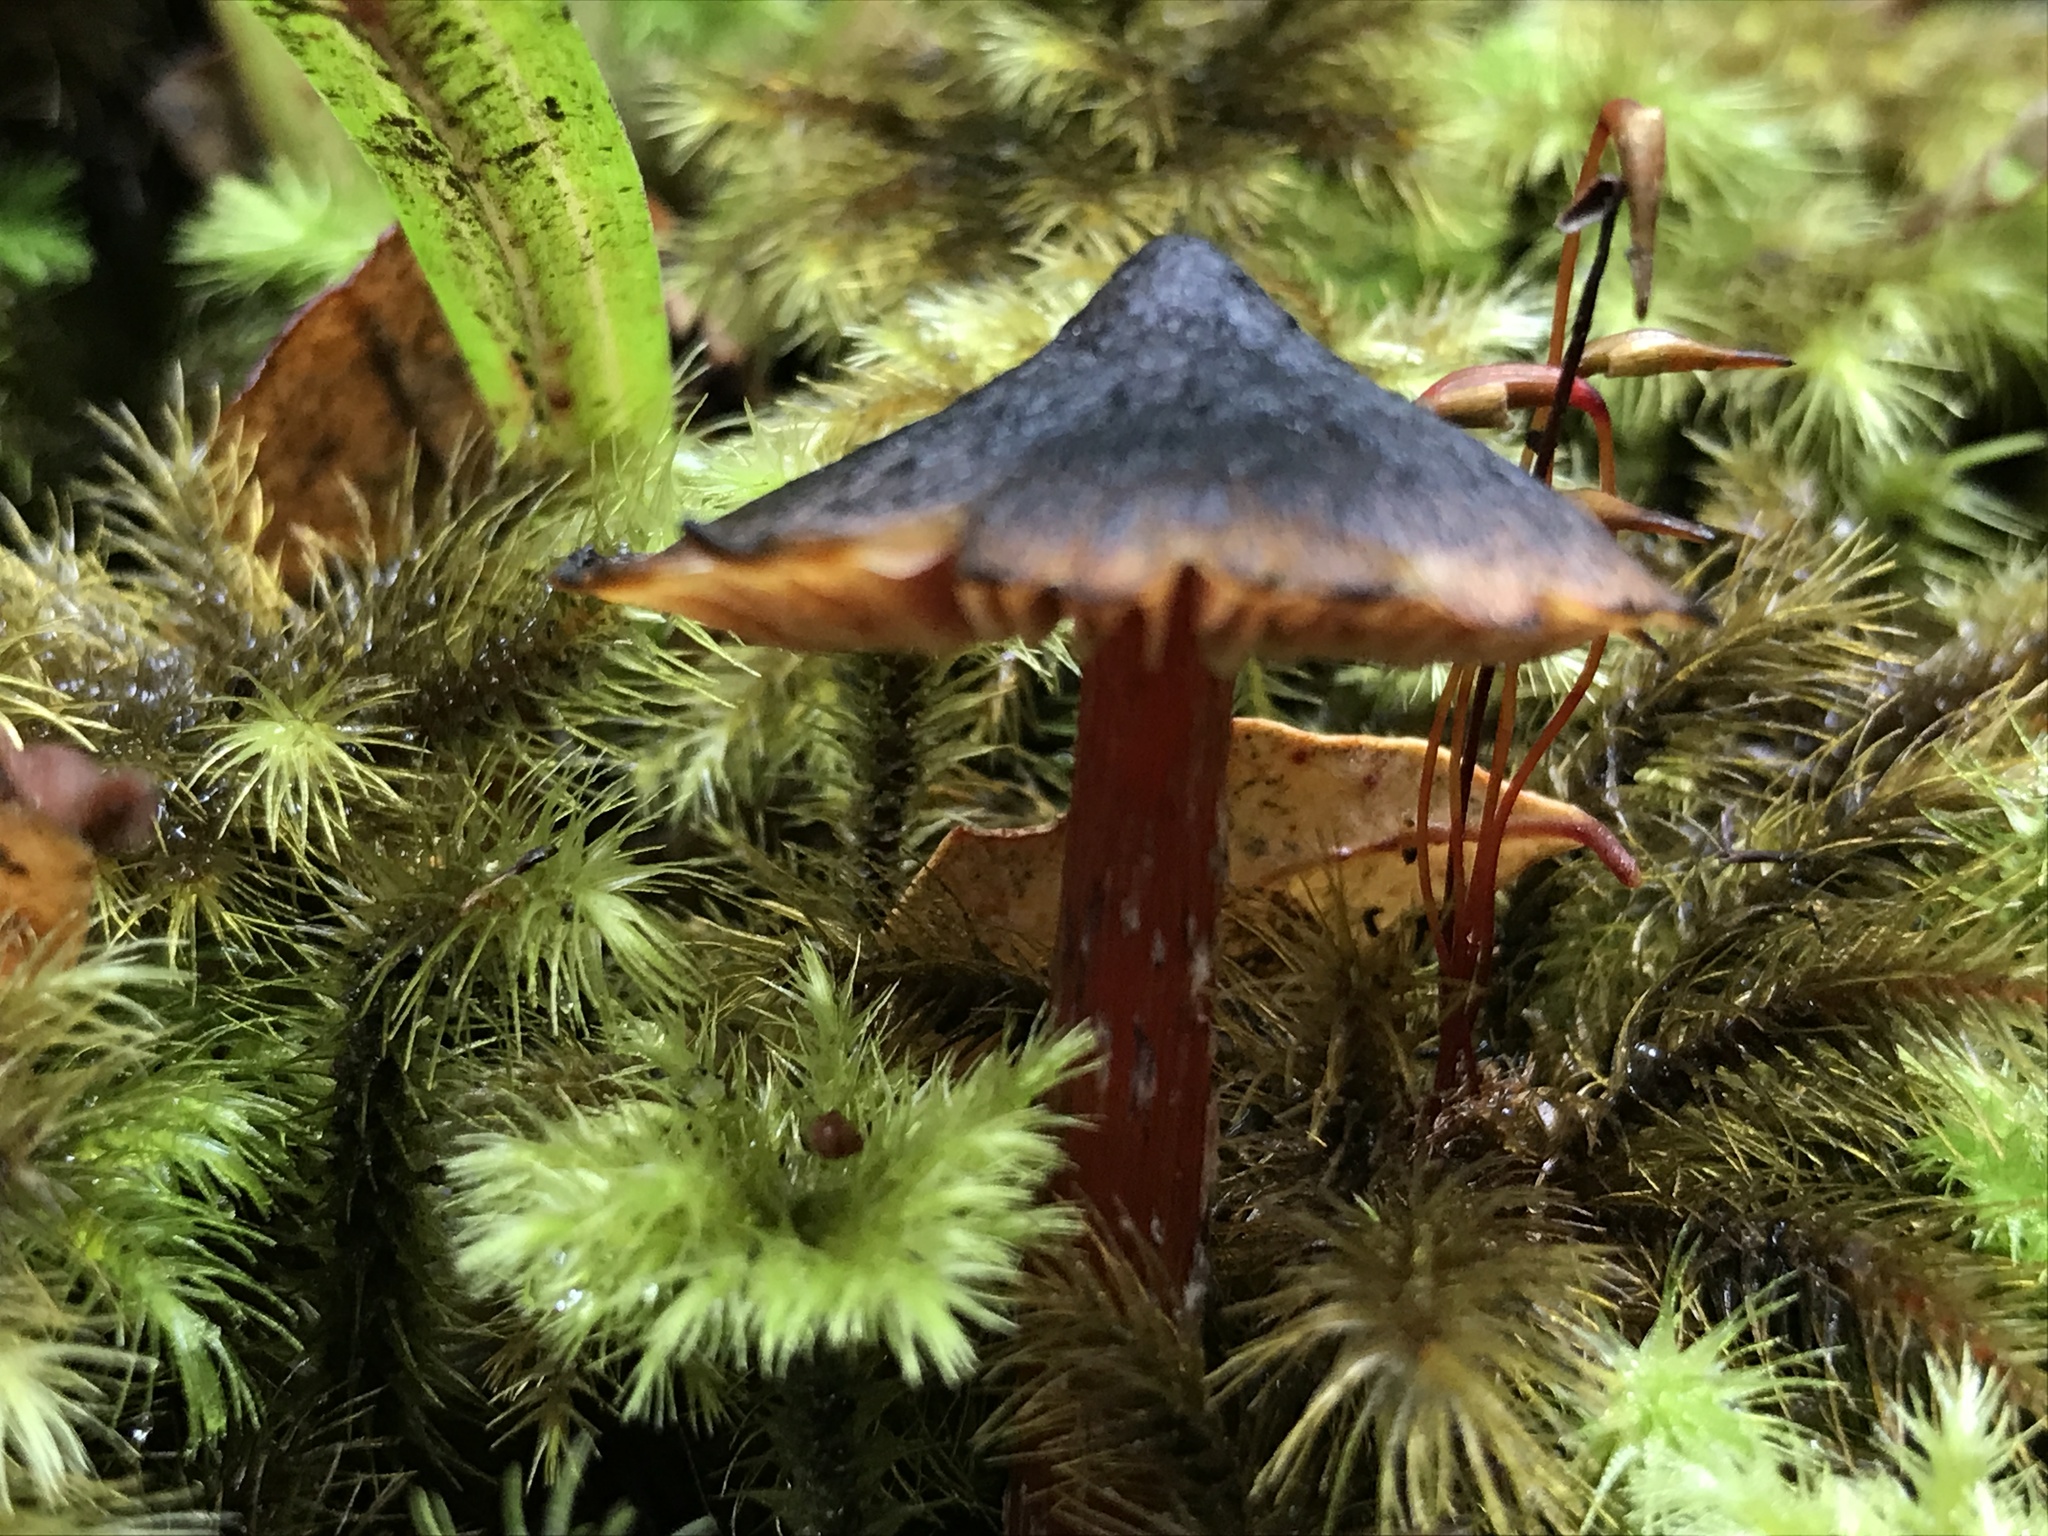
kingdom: Fungi
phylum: Basidiomycota
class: Agaricomycetes
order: Agaricales
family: Hygrophoraceae
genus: Hygrocybe
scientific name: Hygrocybe astatogala
